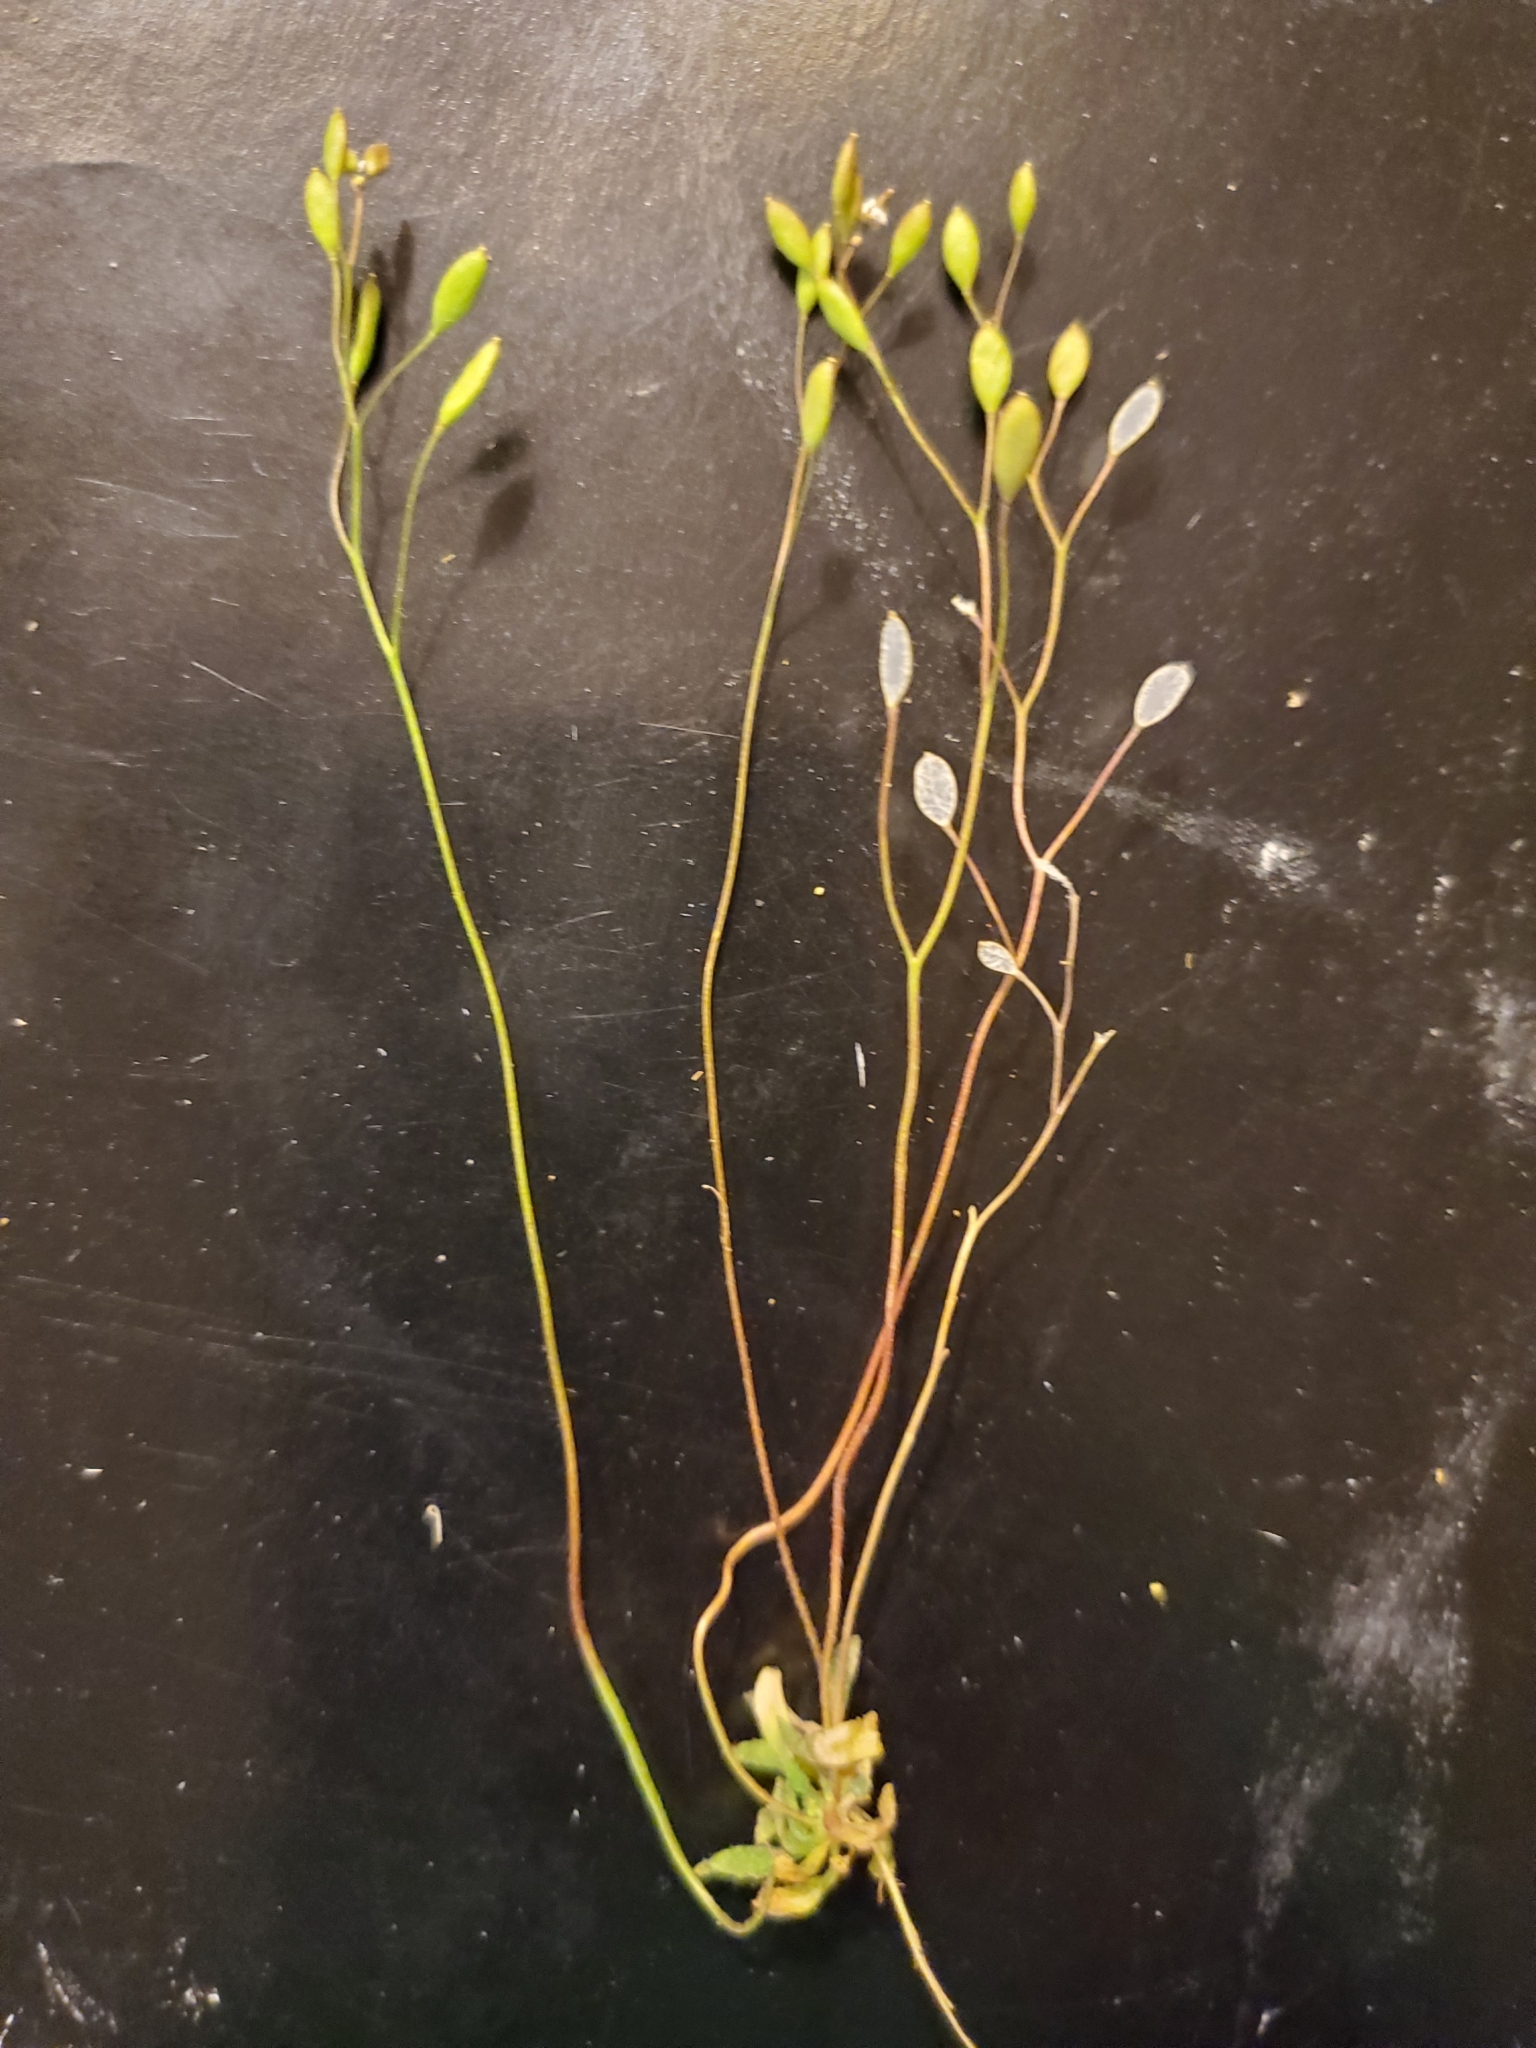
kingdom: Plantae
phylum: Tracheophyta
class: Magnoliopsida
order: Brassicales
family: Brassicaceae
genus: Draba
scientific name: Draba verna
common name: Spring draba
